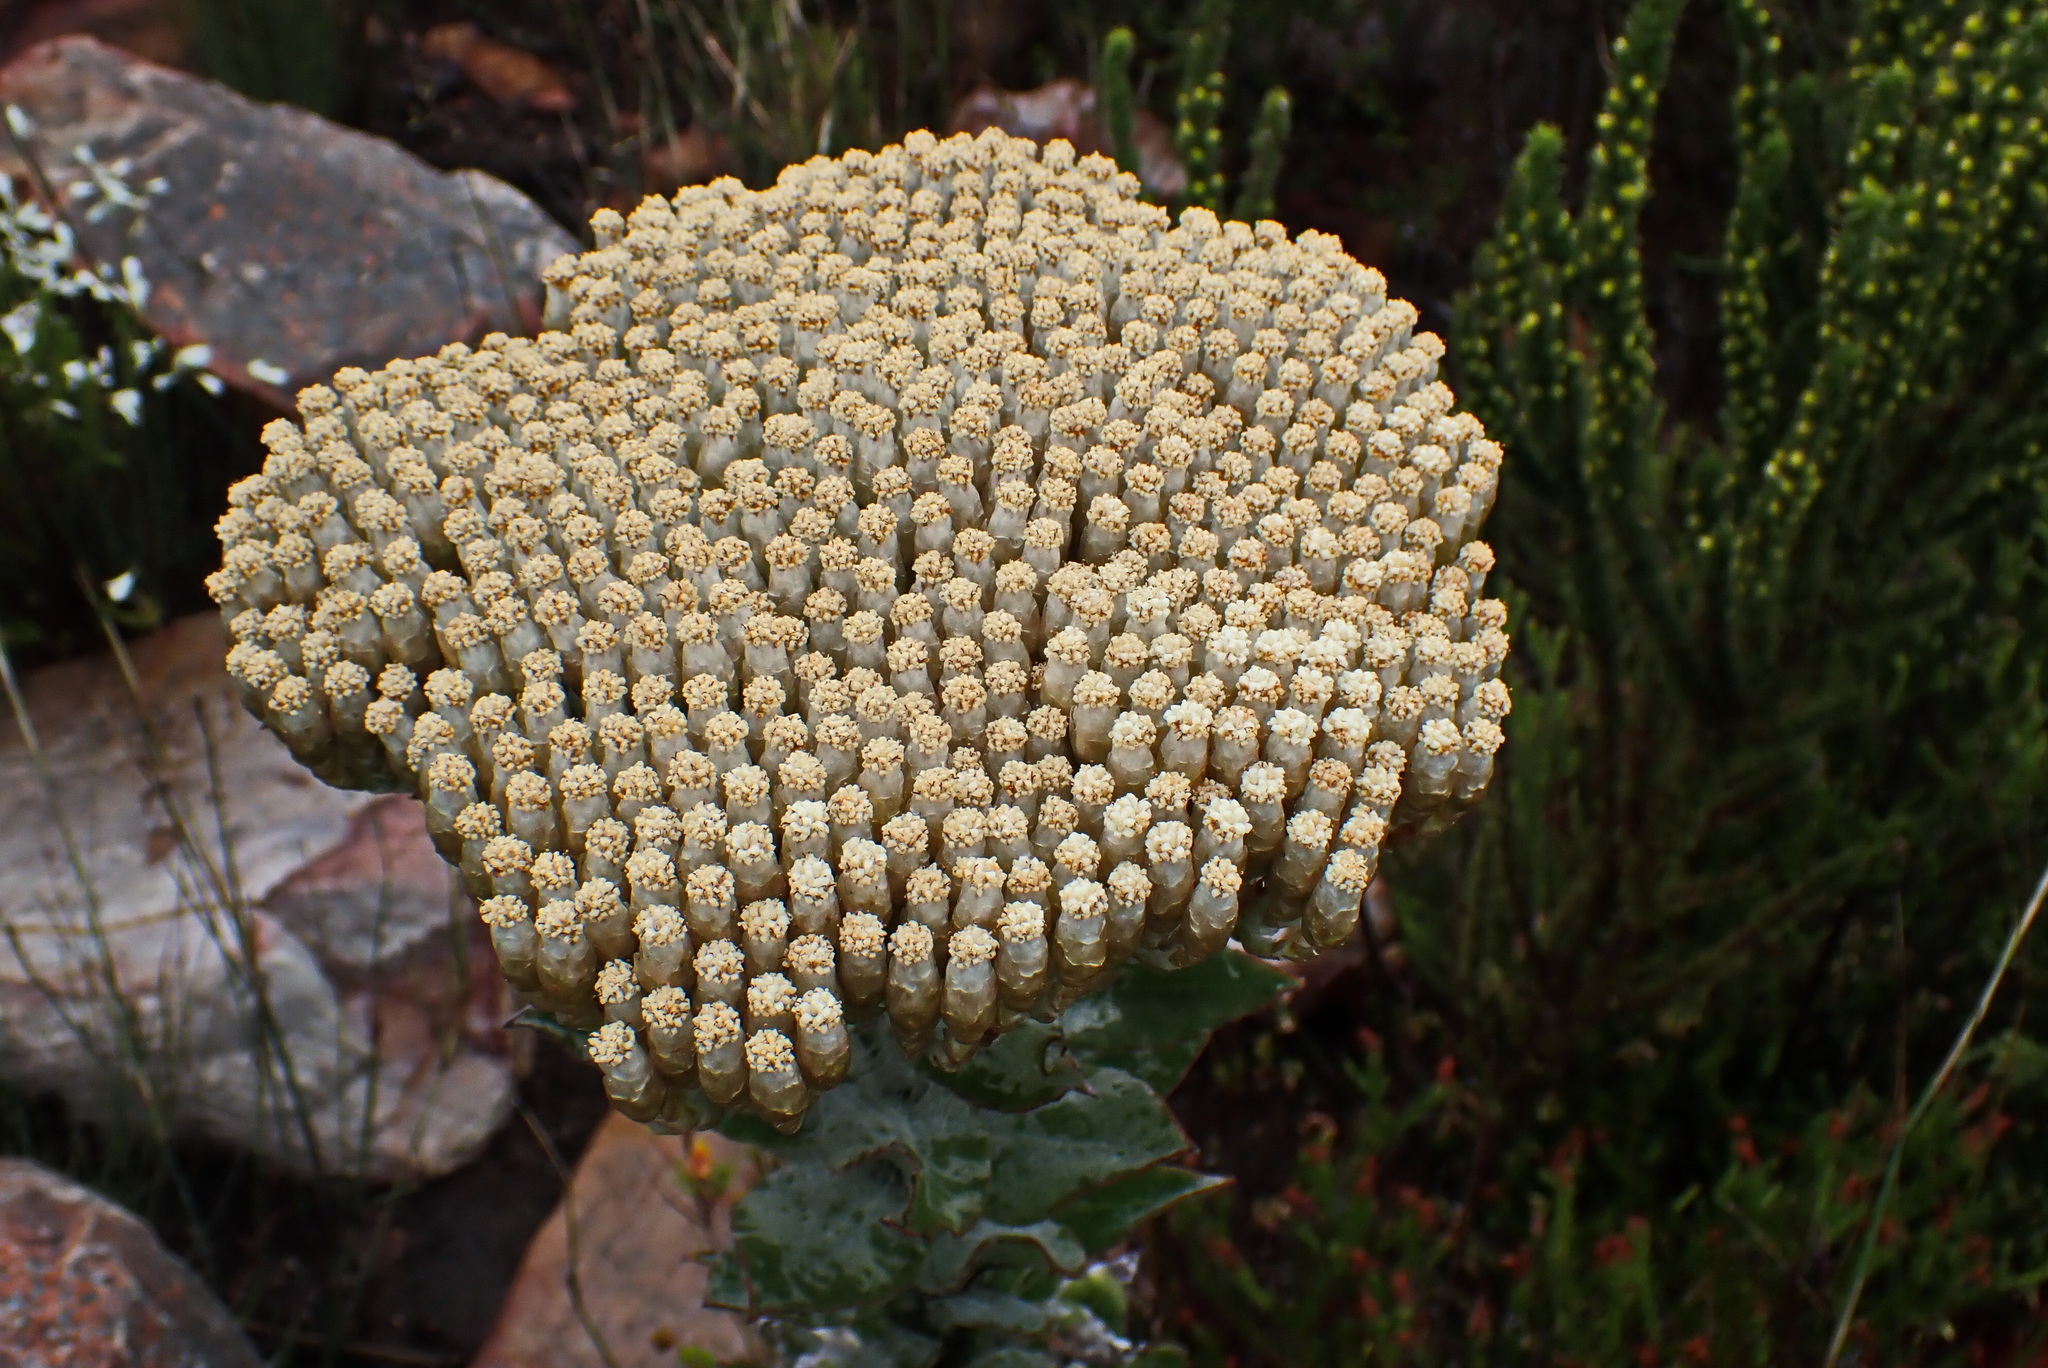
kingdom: Plantae
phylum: Tracheophyta
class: Magnoliopsida
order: Asterales
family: Asteraceae
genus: Syncarpha
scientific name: Syncarpha milleflora
